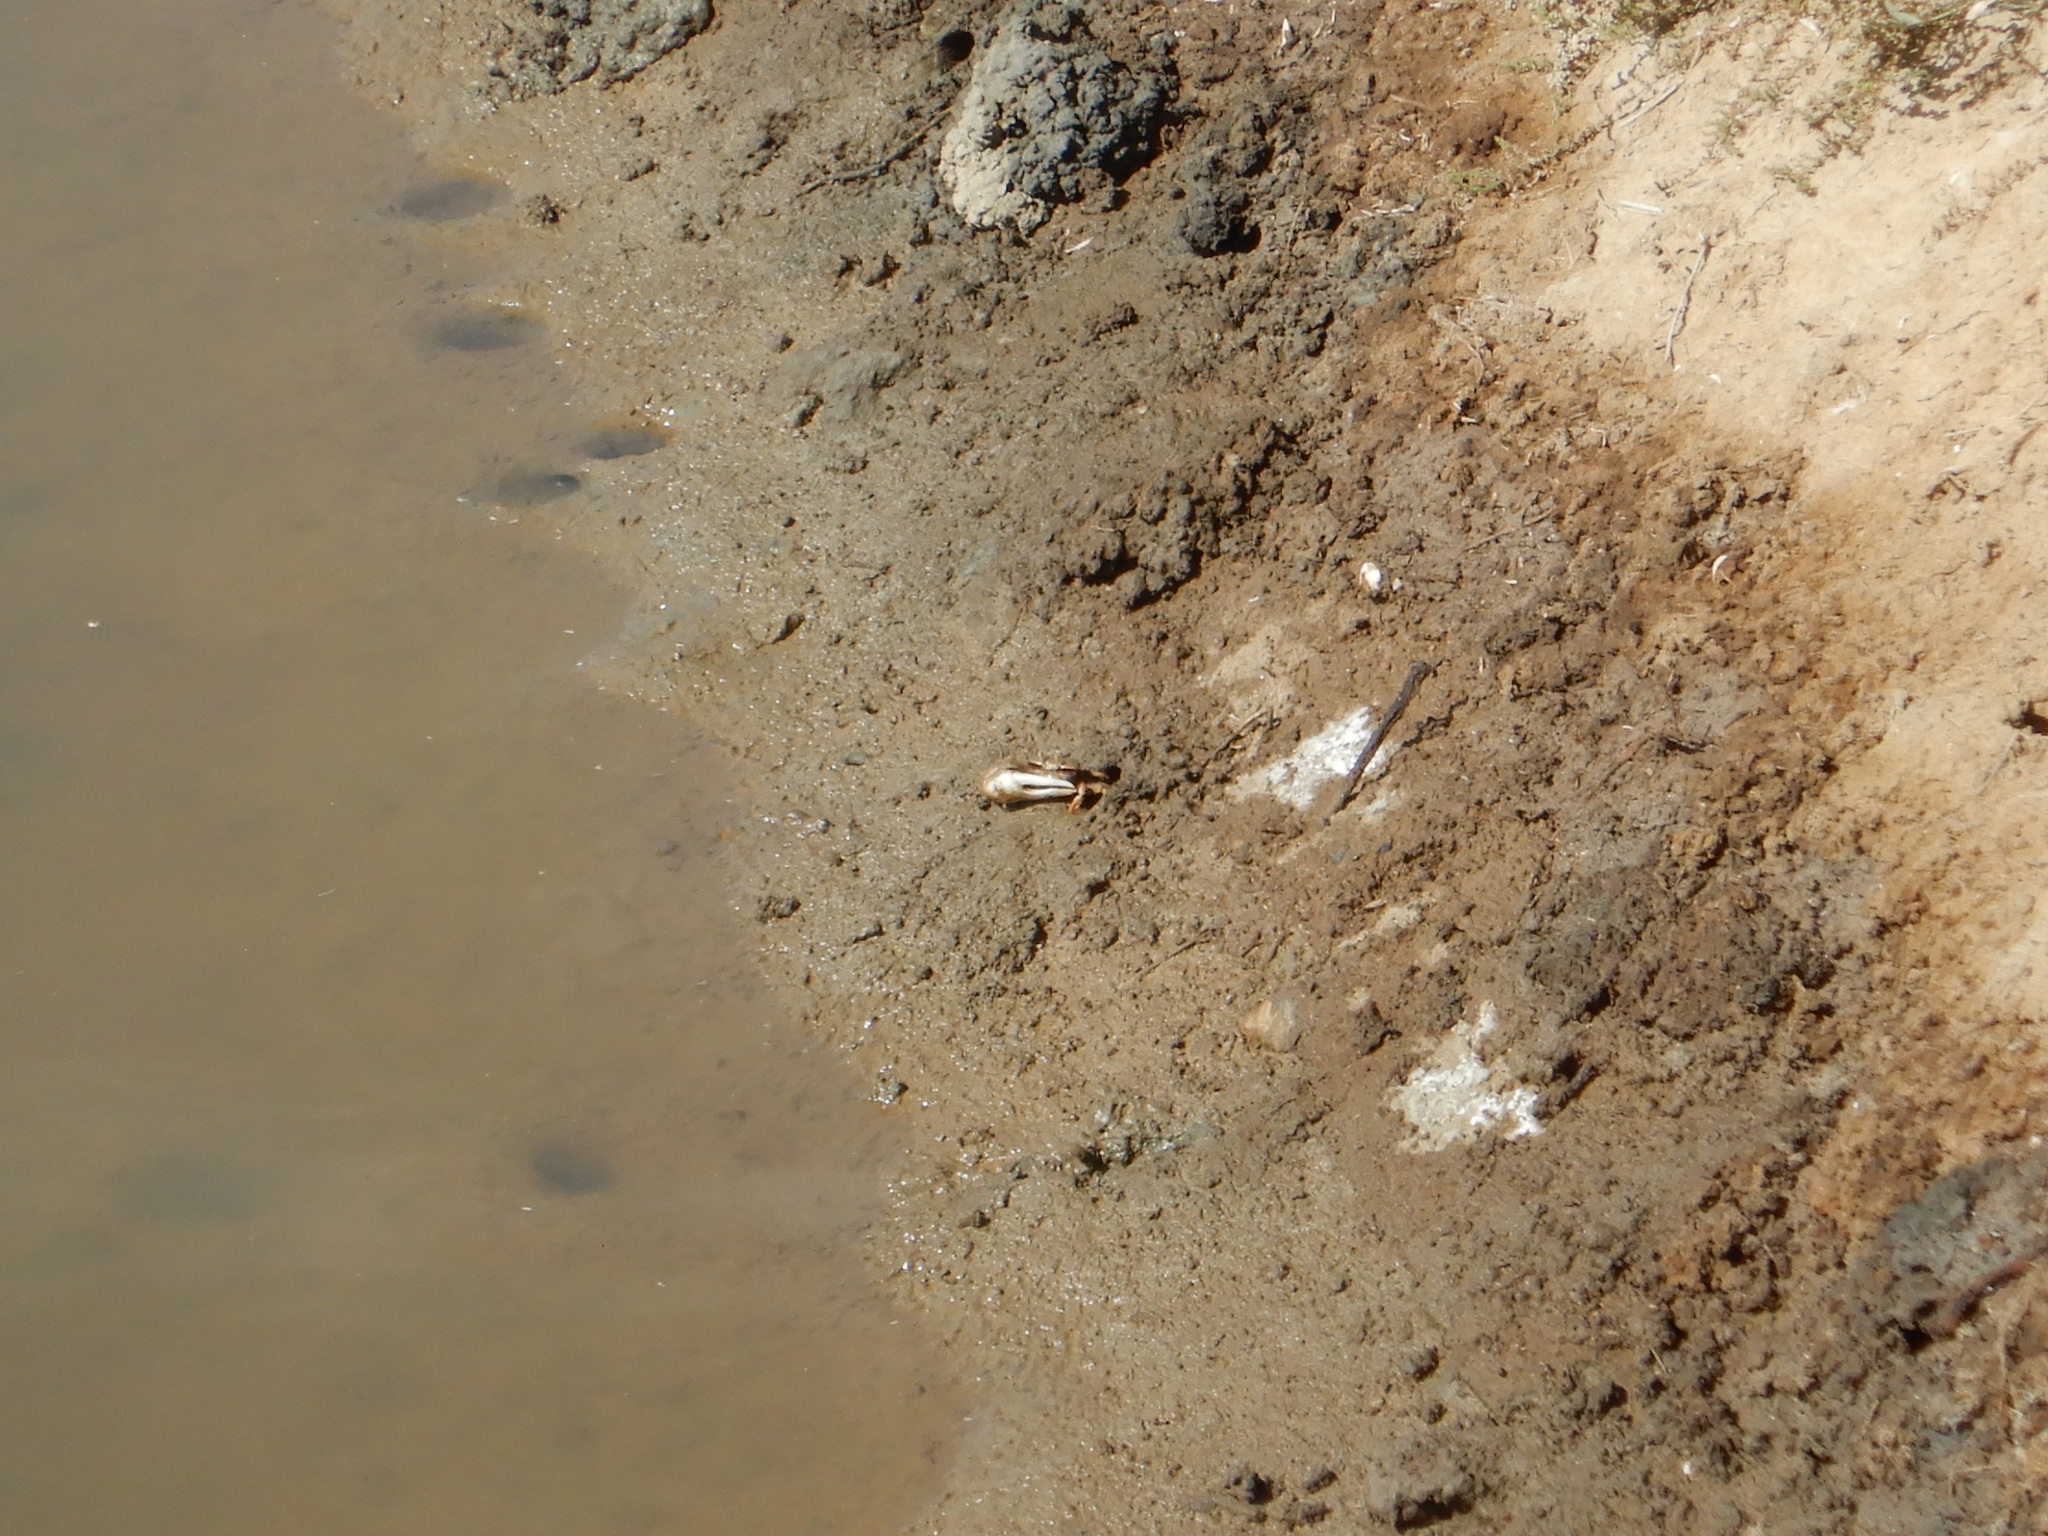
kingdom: Animalia
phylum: Arthropoda
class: Malacostraca
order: Decapoda
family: Ocypodidae
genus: Afruca
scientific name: Afruca tangeri
